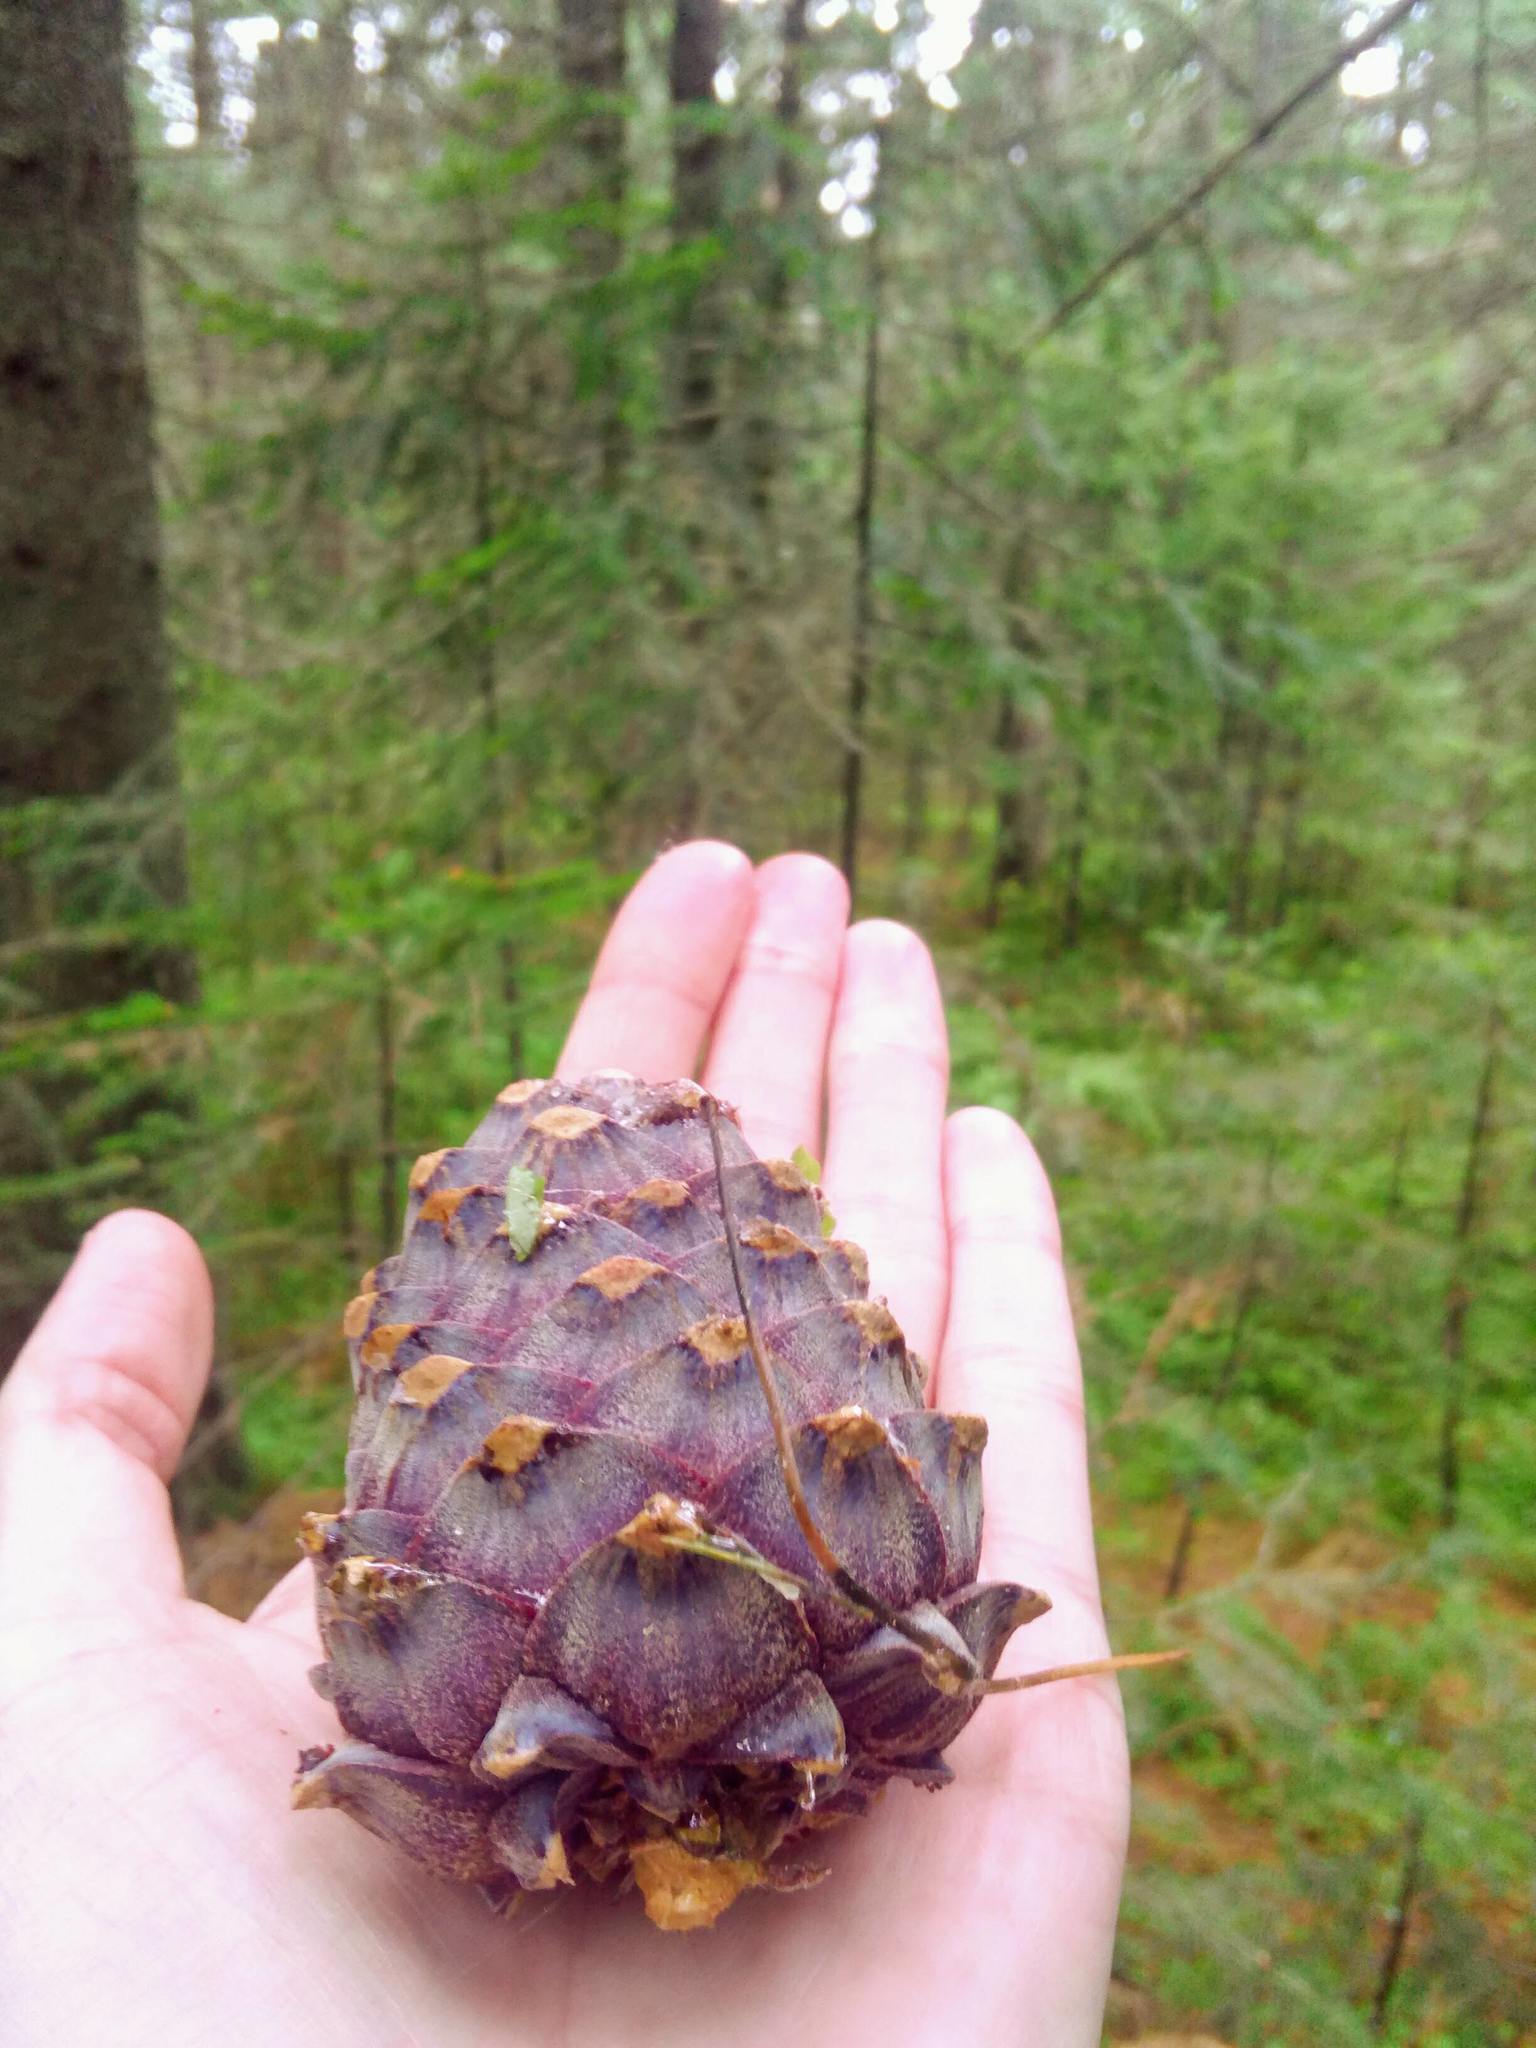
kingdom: Plantae
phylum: Tracheophyta
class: Pinopsida
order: Pinales
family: Pinaceae
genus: Pinus
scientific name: Pinus sibirica
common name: Siberian pine
